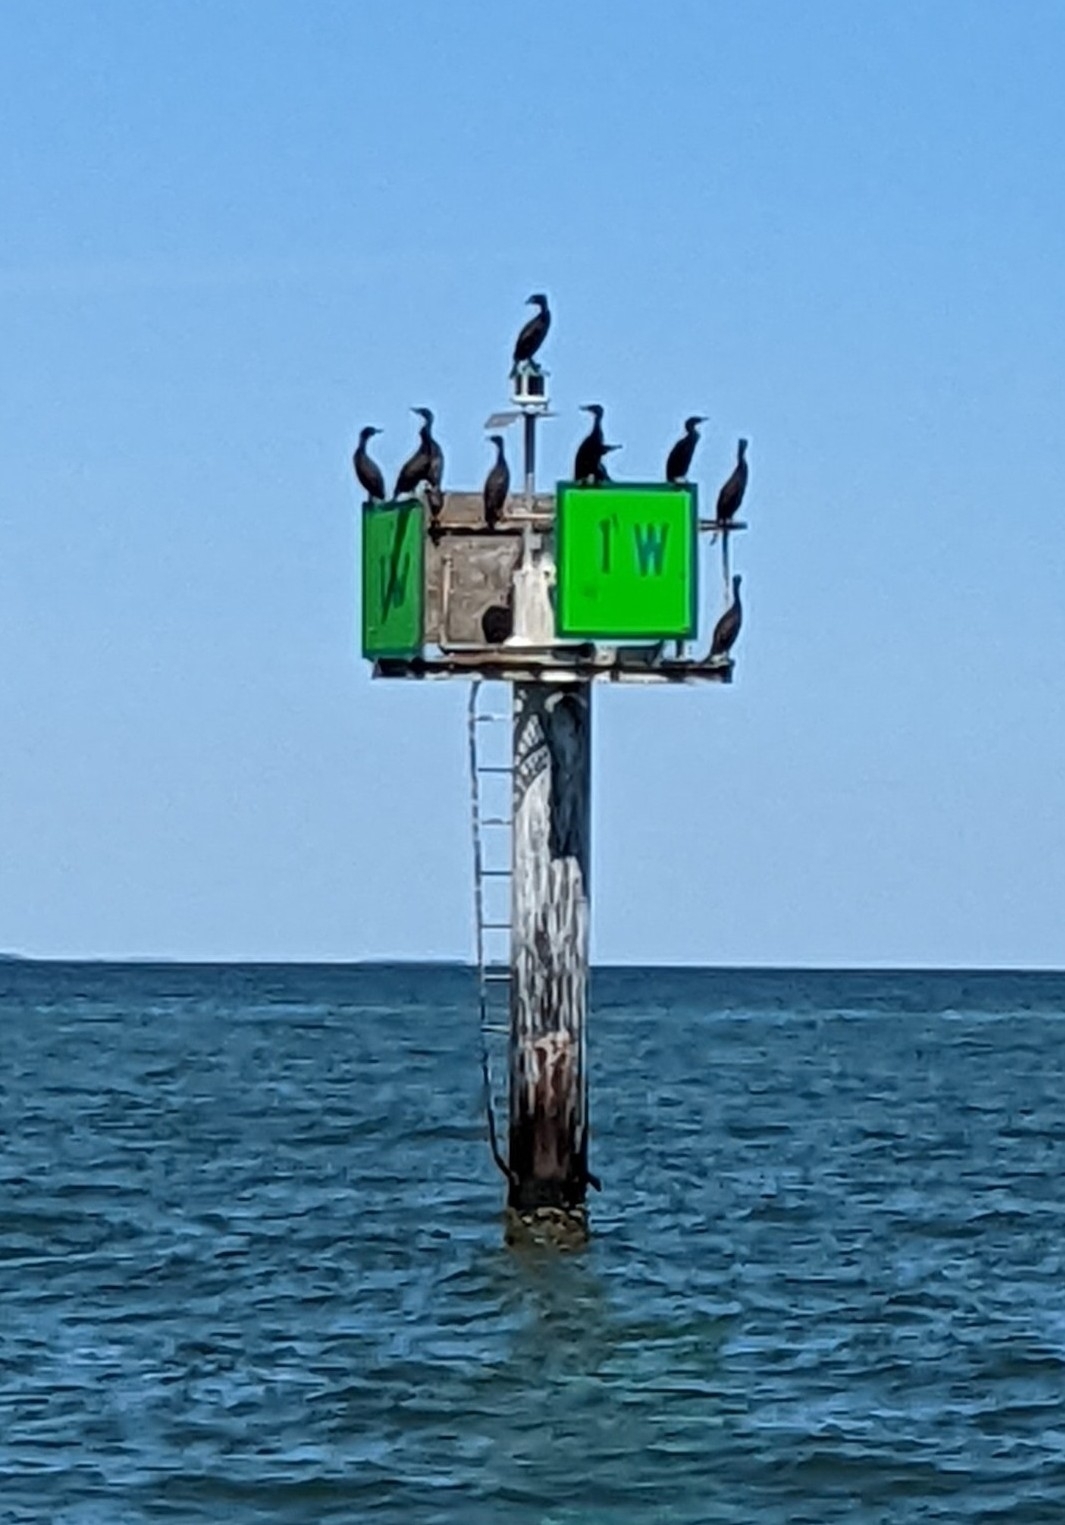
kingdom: Animalia
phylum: Chordata
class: Aves
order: Suliformes
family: Phalacrocoracidae
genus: Phalacrocorax
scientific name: Phalacrocorax auritus
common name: Double-crested cormorant
